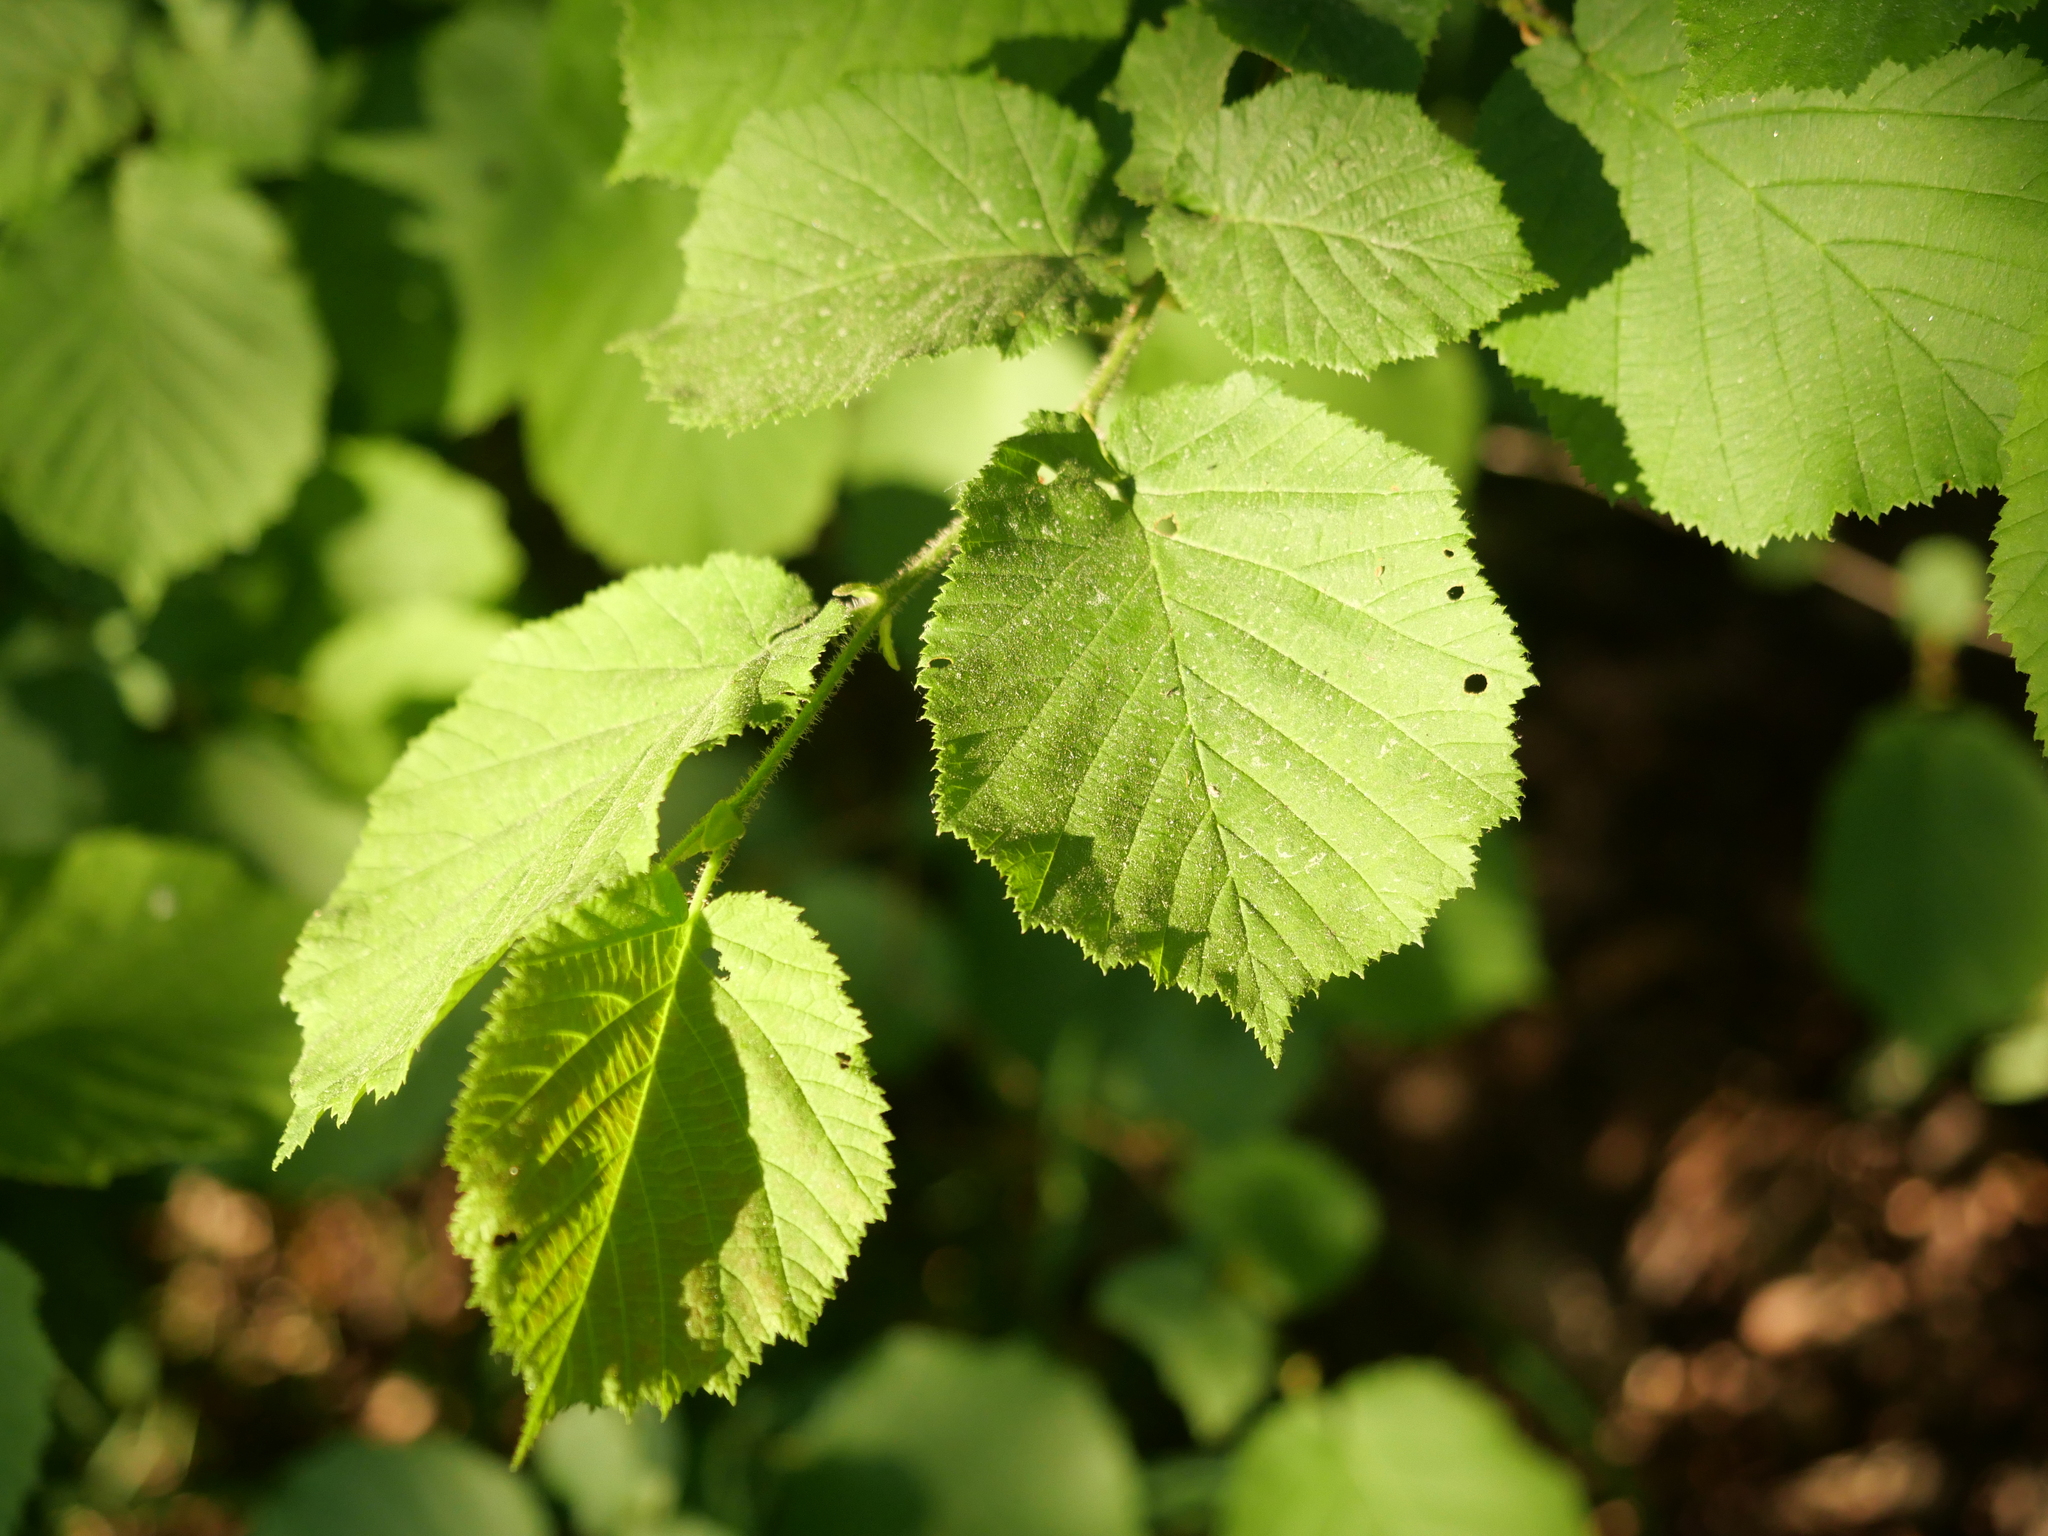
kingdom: Plantae
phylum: Tracheophyta
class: Magnoliopsida
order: Fagales
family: Betulaceae
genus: Corylus
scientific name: Corylus avellana
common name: European hazel
